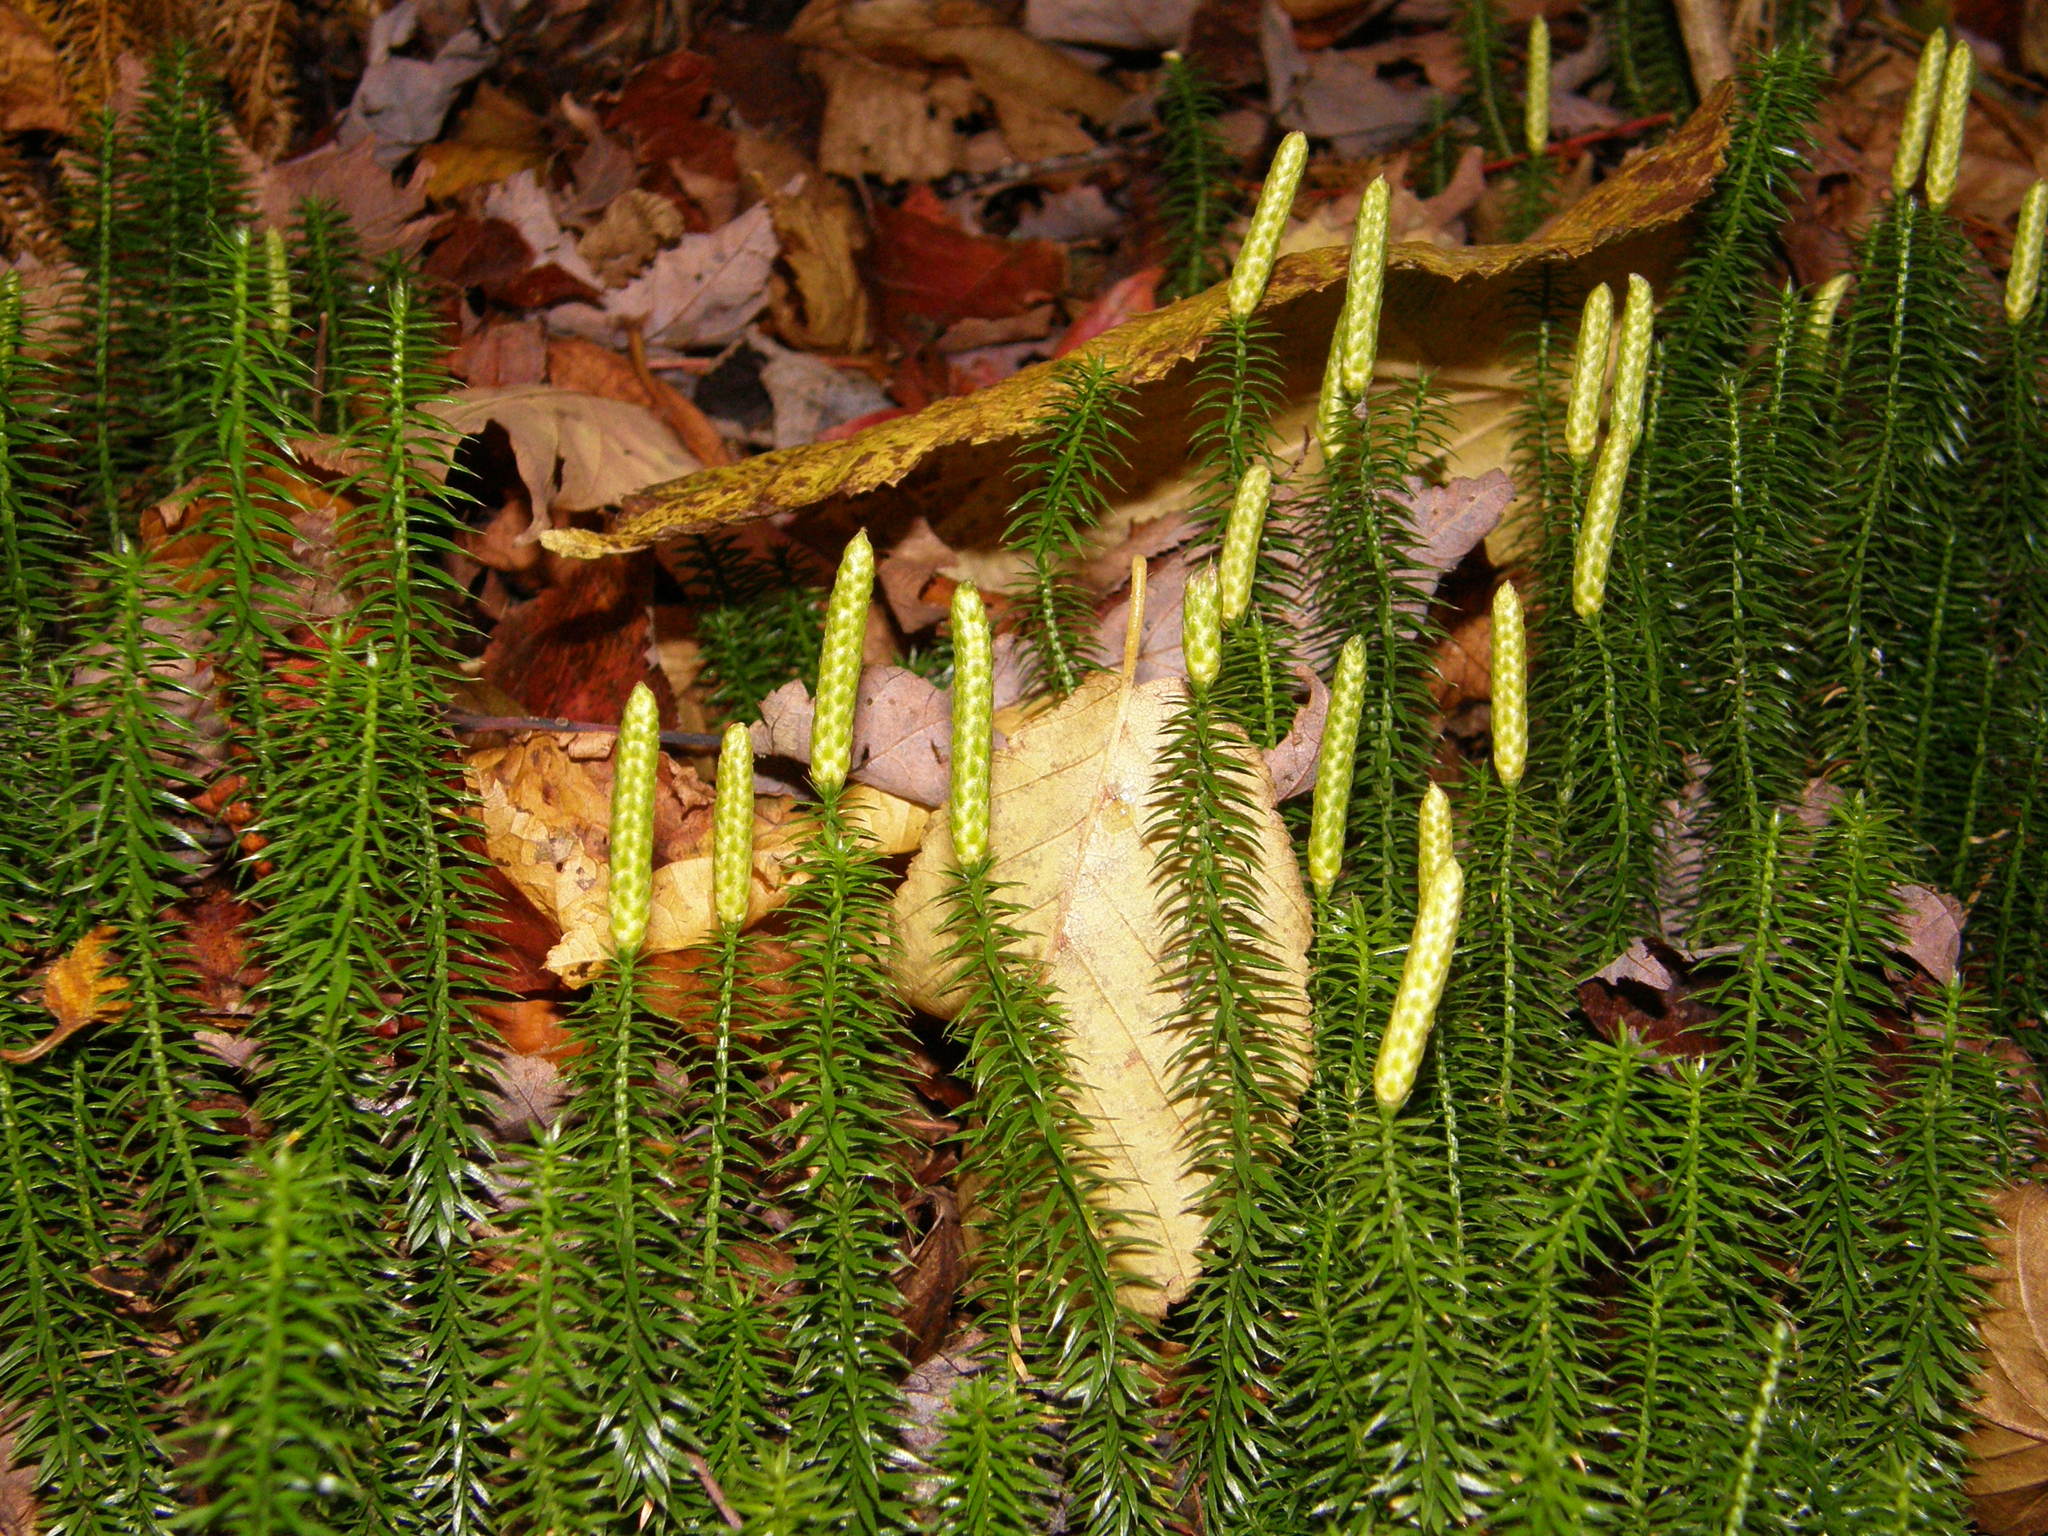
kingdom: Plantae
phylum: Tracheophyta
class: Lycopodiopsida
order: Lycopodiales
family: Lycopodiaceae
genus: Spinulum
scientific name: Spinulum annotinum
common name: Interrupted club-moss
